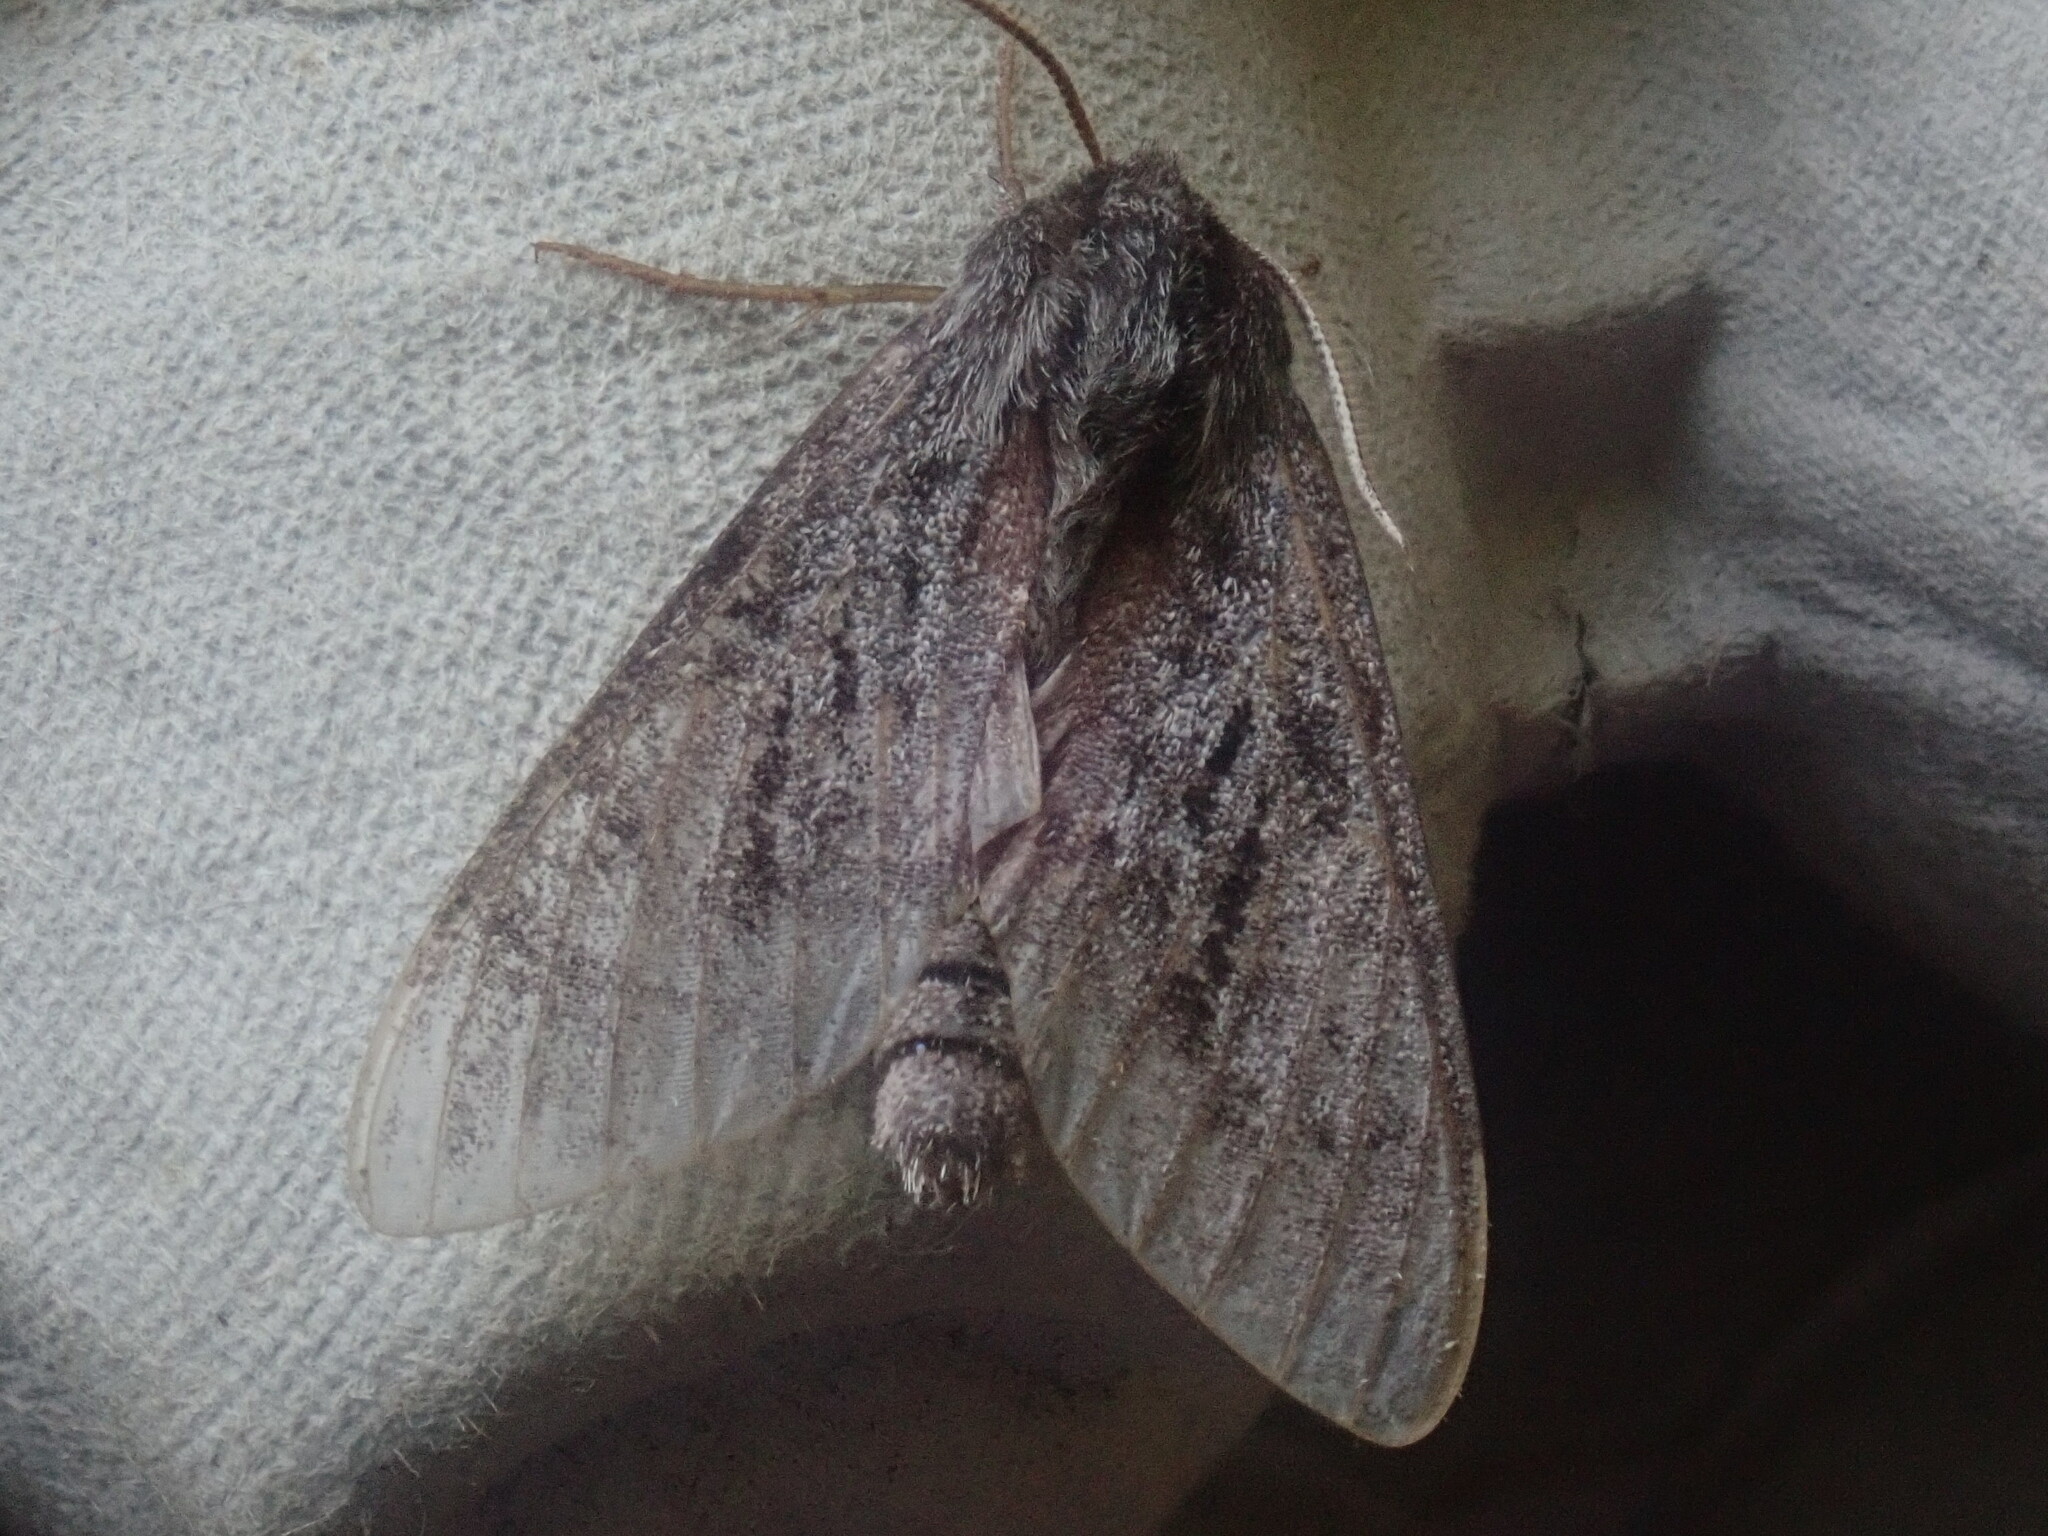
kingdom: Animalia
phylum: Arthropoda
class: Insecta
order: Lepidoptera
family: Sphingidae
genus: Lapara
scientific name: Lapara bombycoides
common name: Northern pine sphinx
